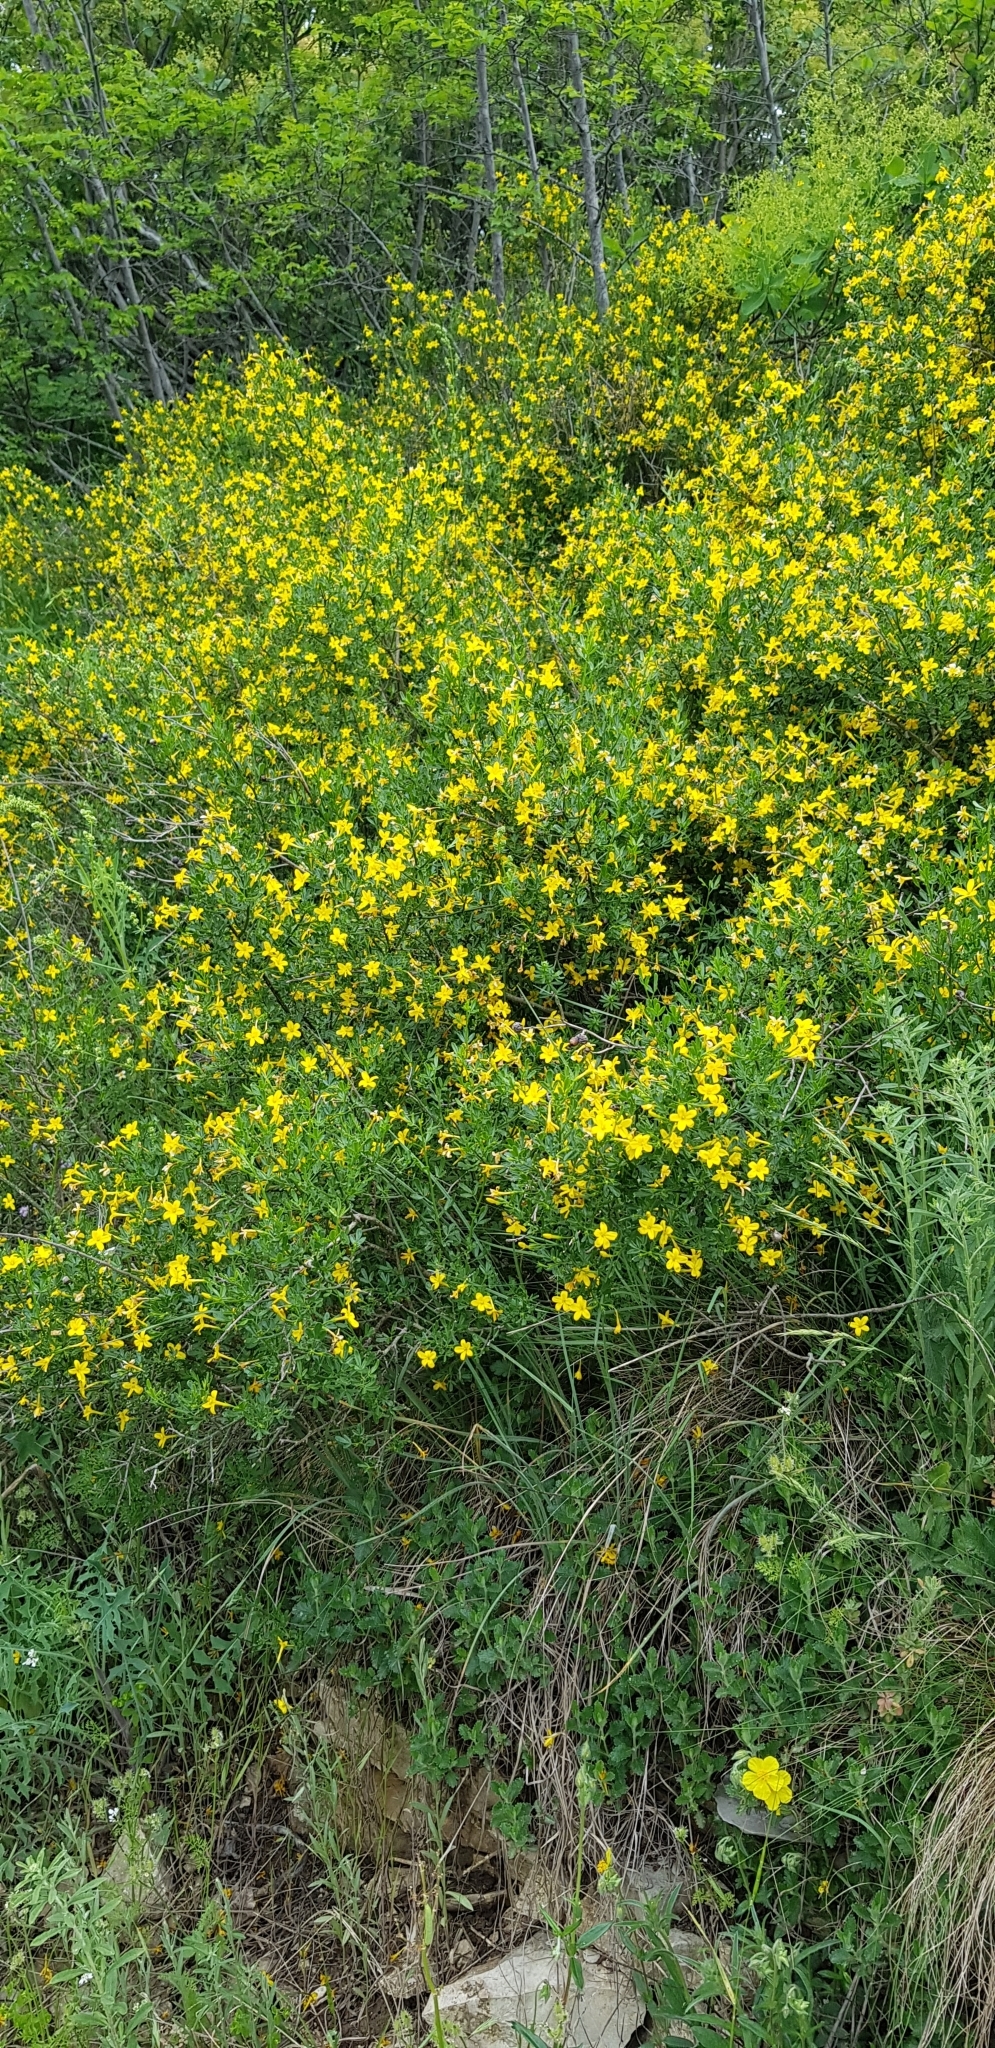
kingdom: Plantae
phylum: Tracheophyta
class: Magnoliopsida
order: Lamiales
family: Oleaceae
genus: Chrysojasminum
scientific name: Chrysojasminum fruticans
